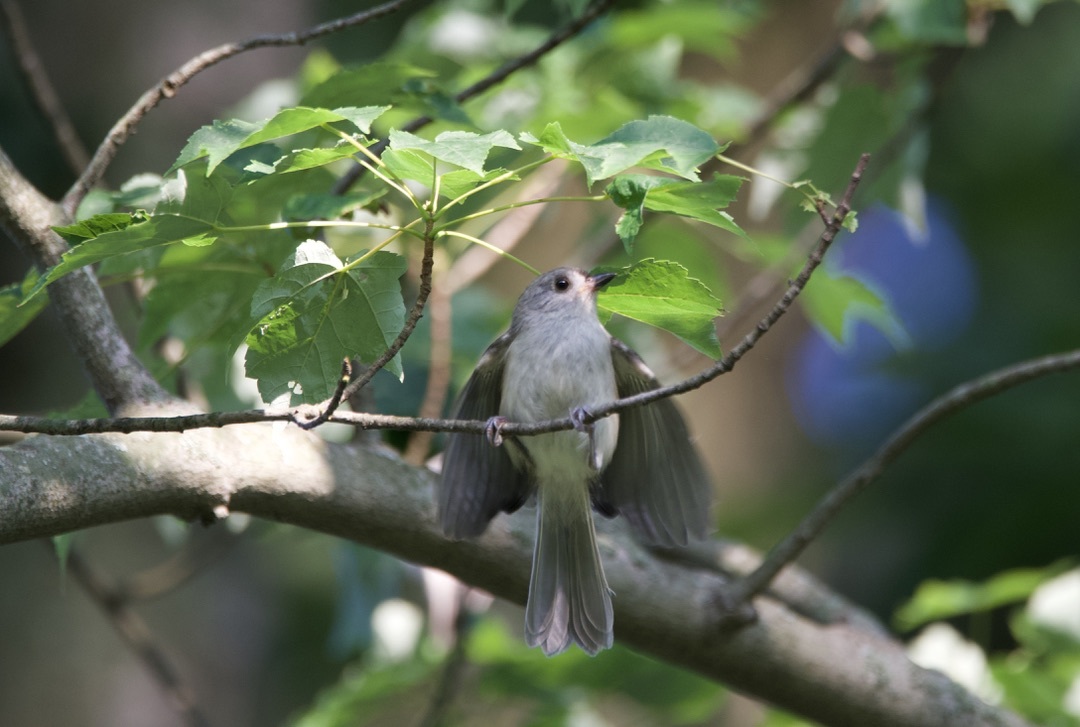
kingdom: Animalia
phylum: Chordata
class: Aves
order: Passeriformes
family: Paridae
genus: Baeolophus
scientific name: Baeolophus bicolor
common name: Tufted titmouse
